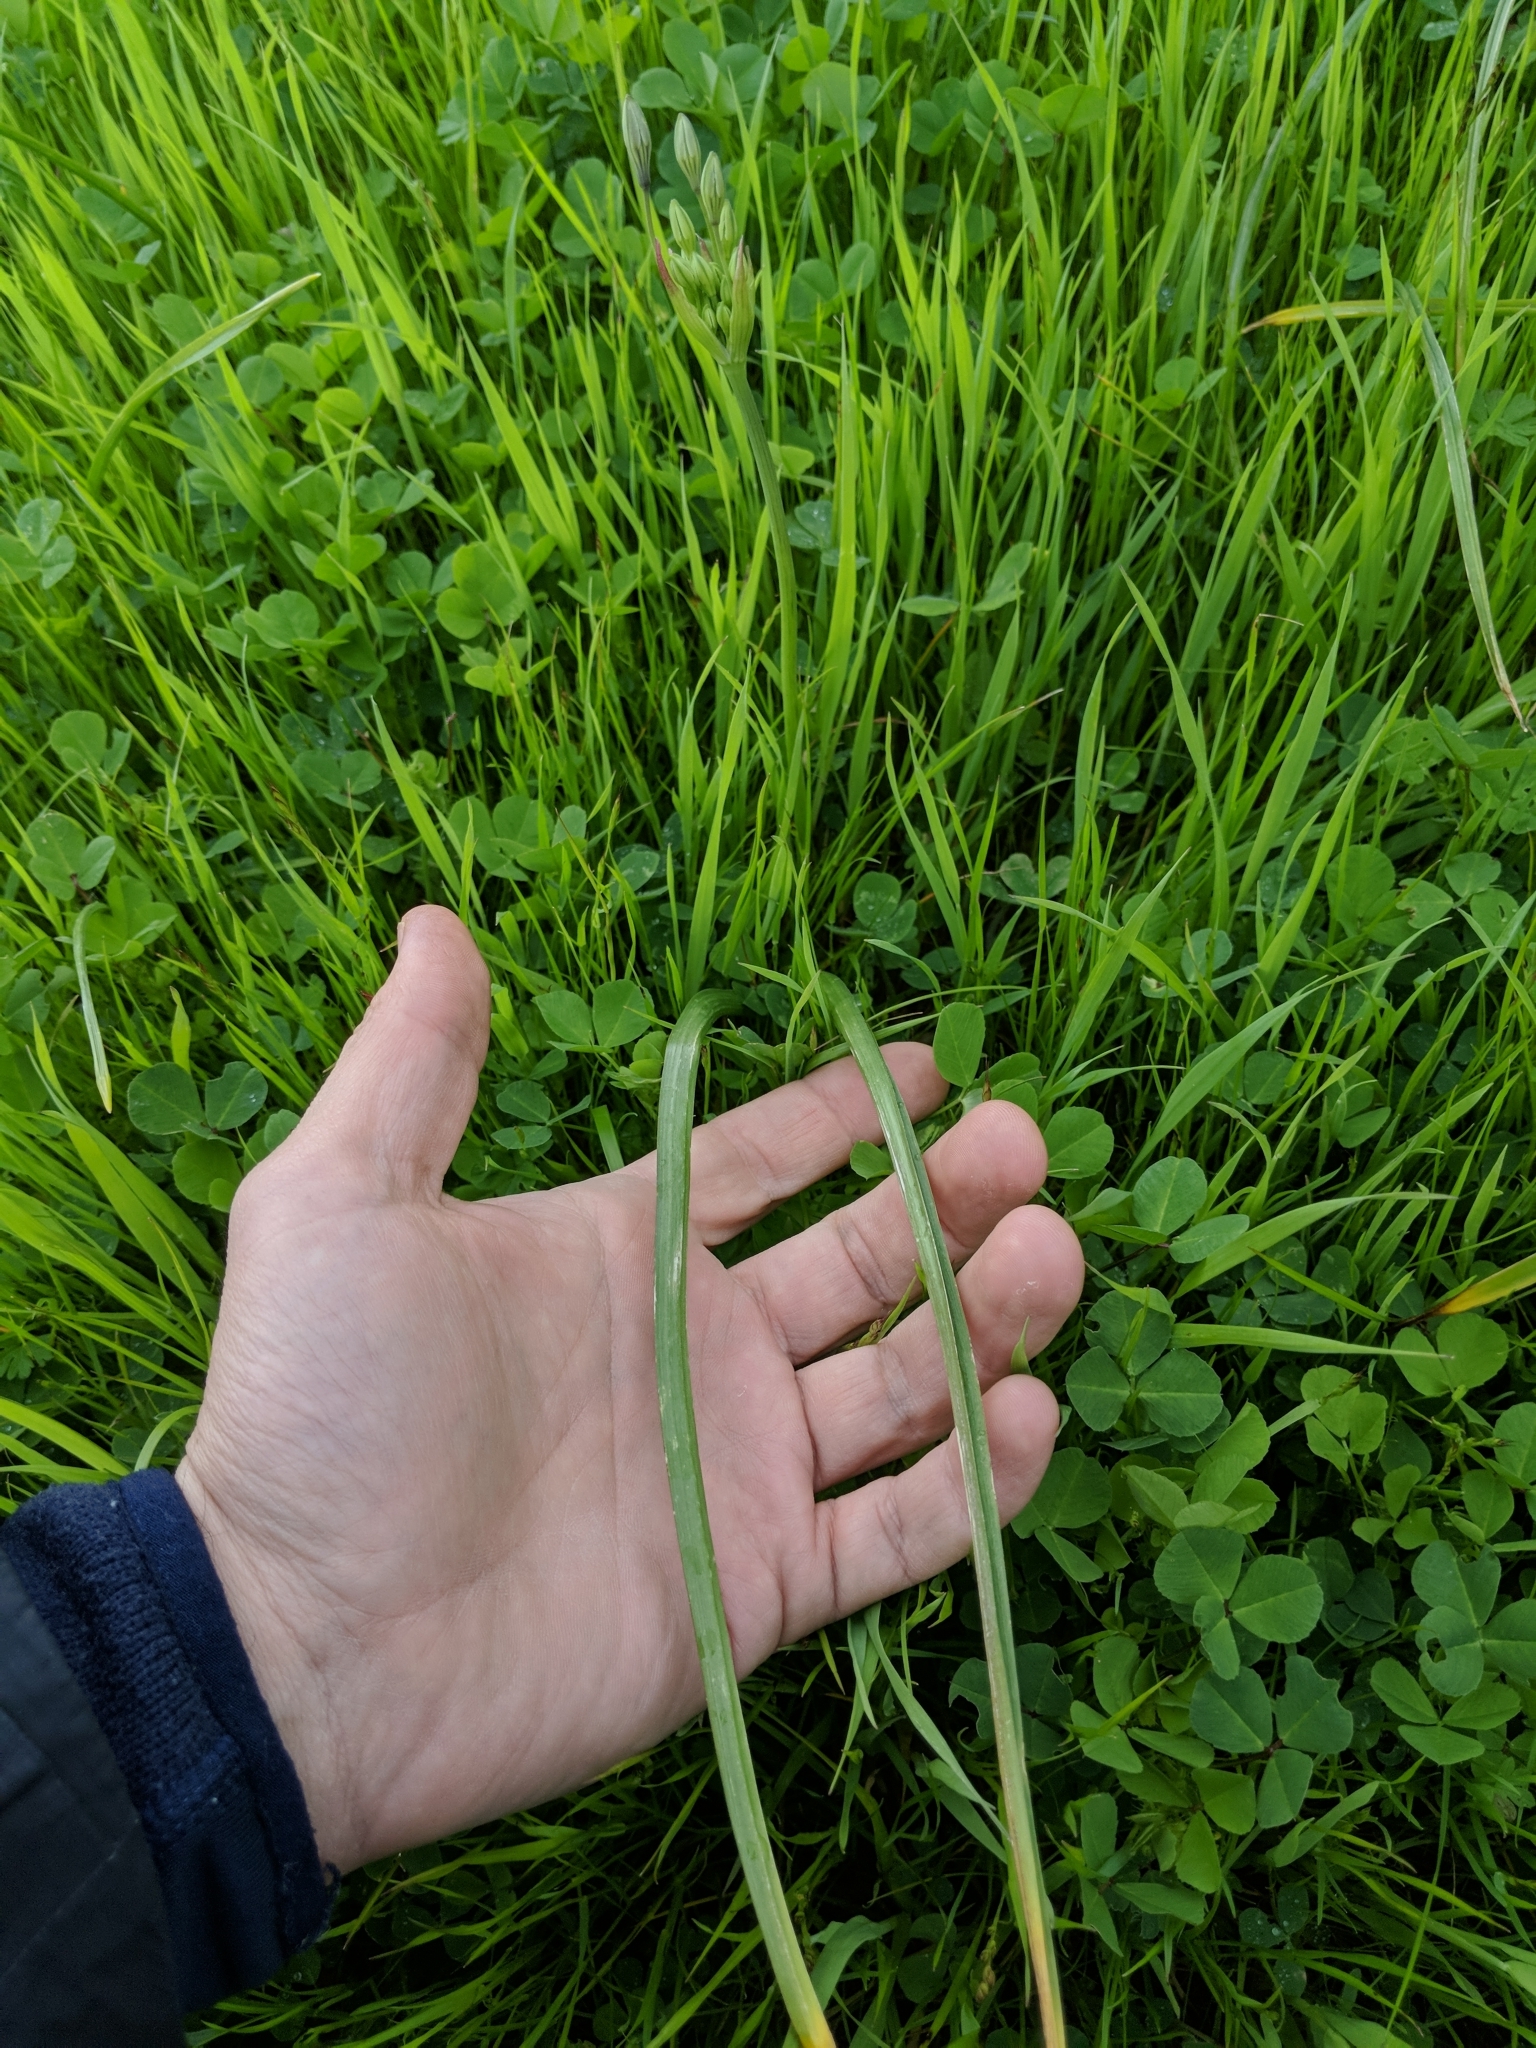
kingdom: Plantae
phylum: Tracheophyta
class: Liliopsida
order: Asparagales
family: Asparagaceae
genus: Triteleia
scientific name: Triteleia laxa
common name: Triplet-lily
